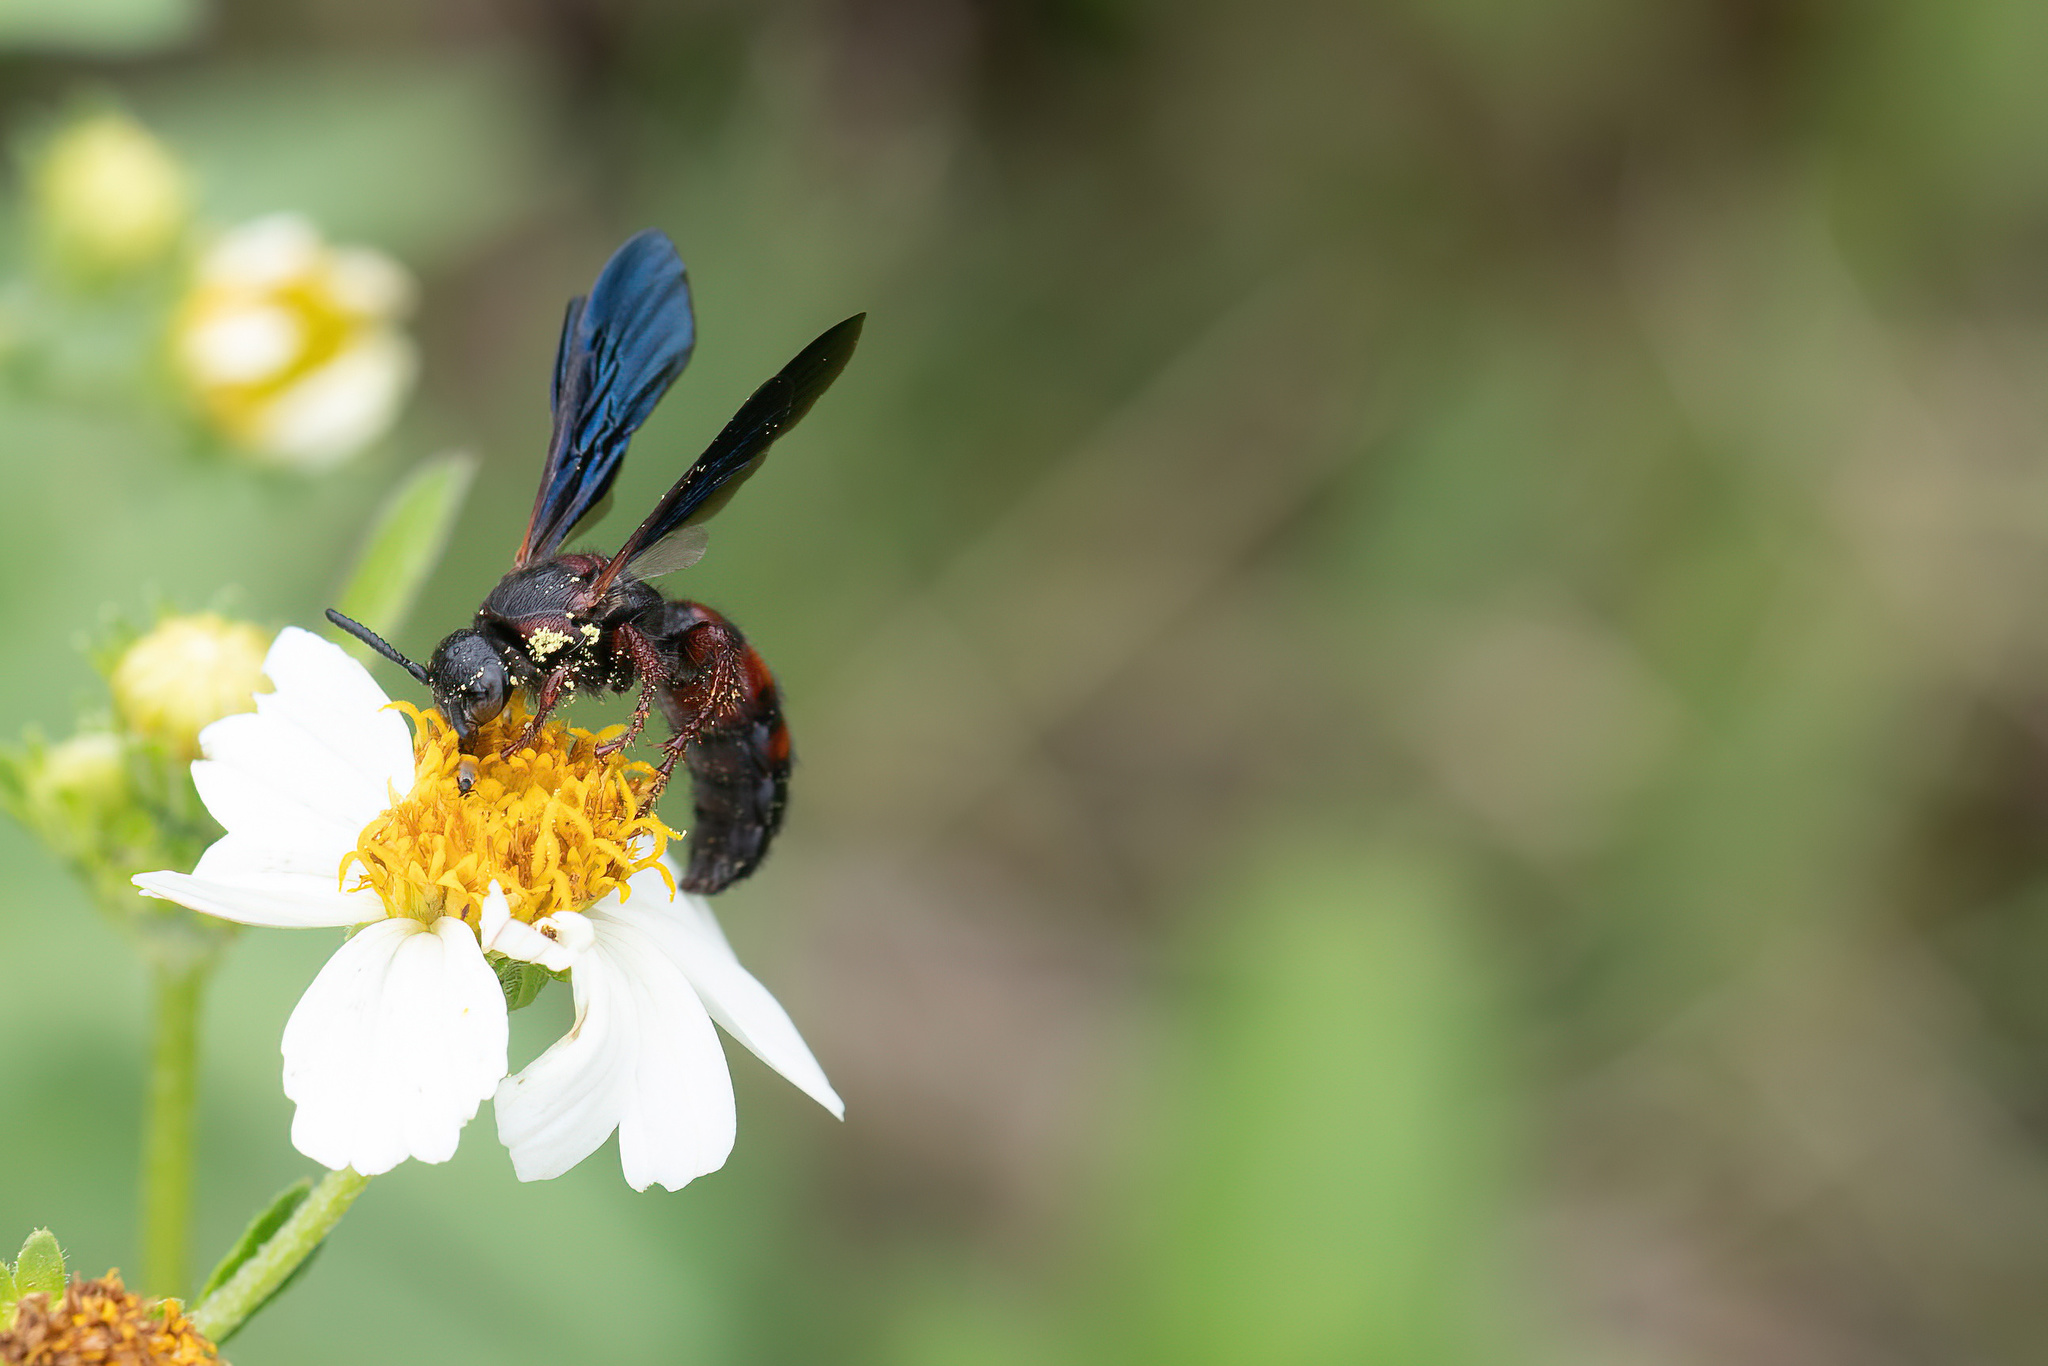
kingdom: Animalia
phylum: Arthropoda
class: Insecta
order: Hymenoptera
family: Scoliidae
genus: Scolia
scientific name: Scolia nobilitata
